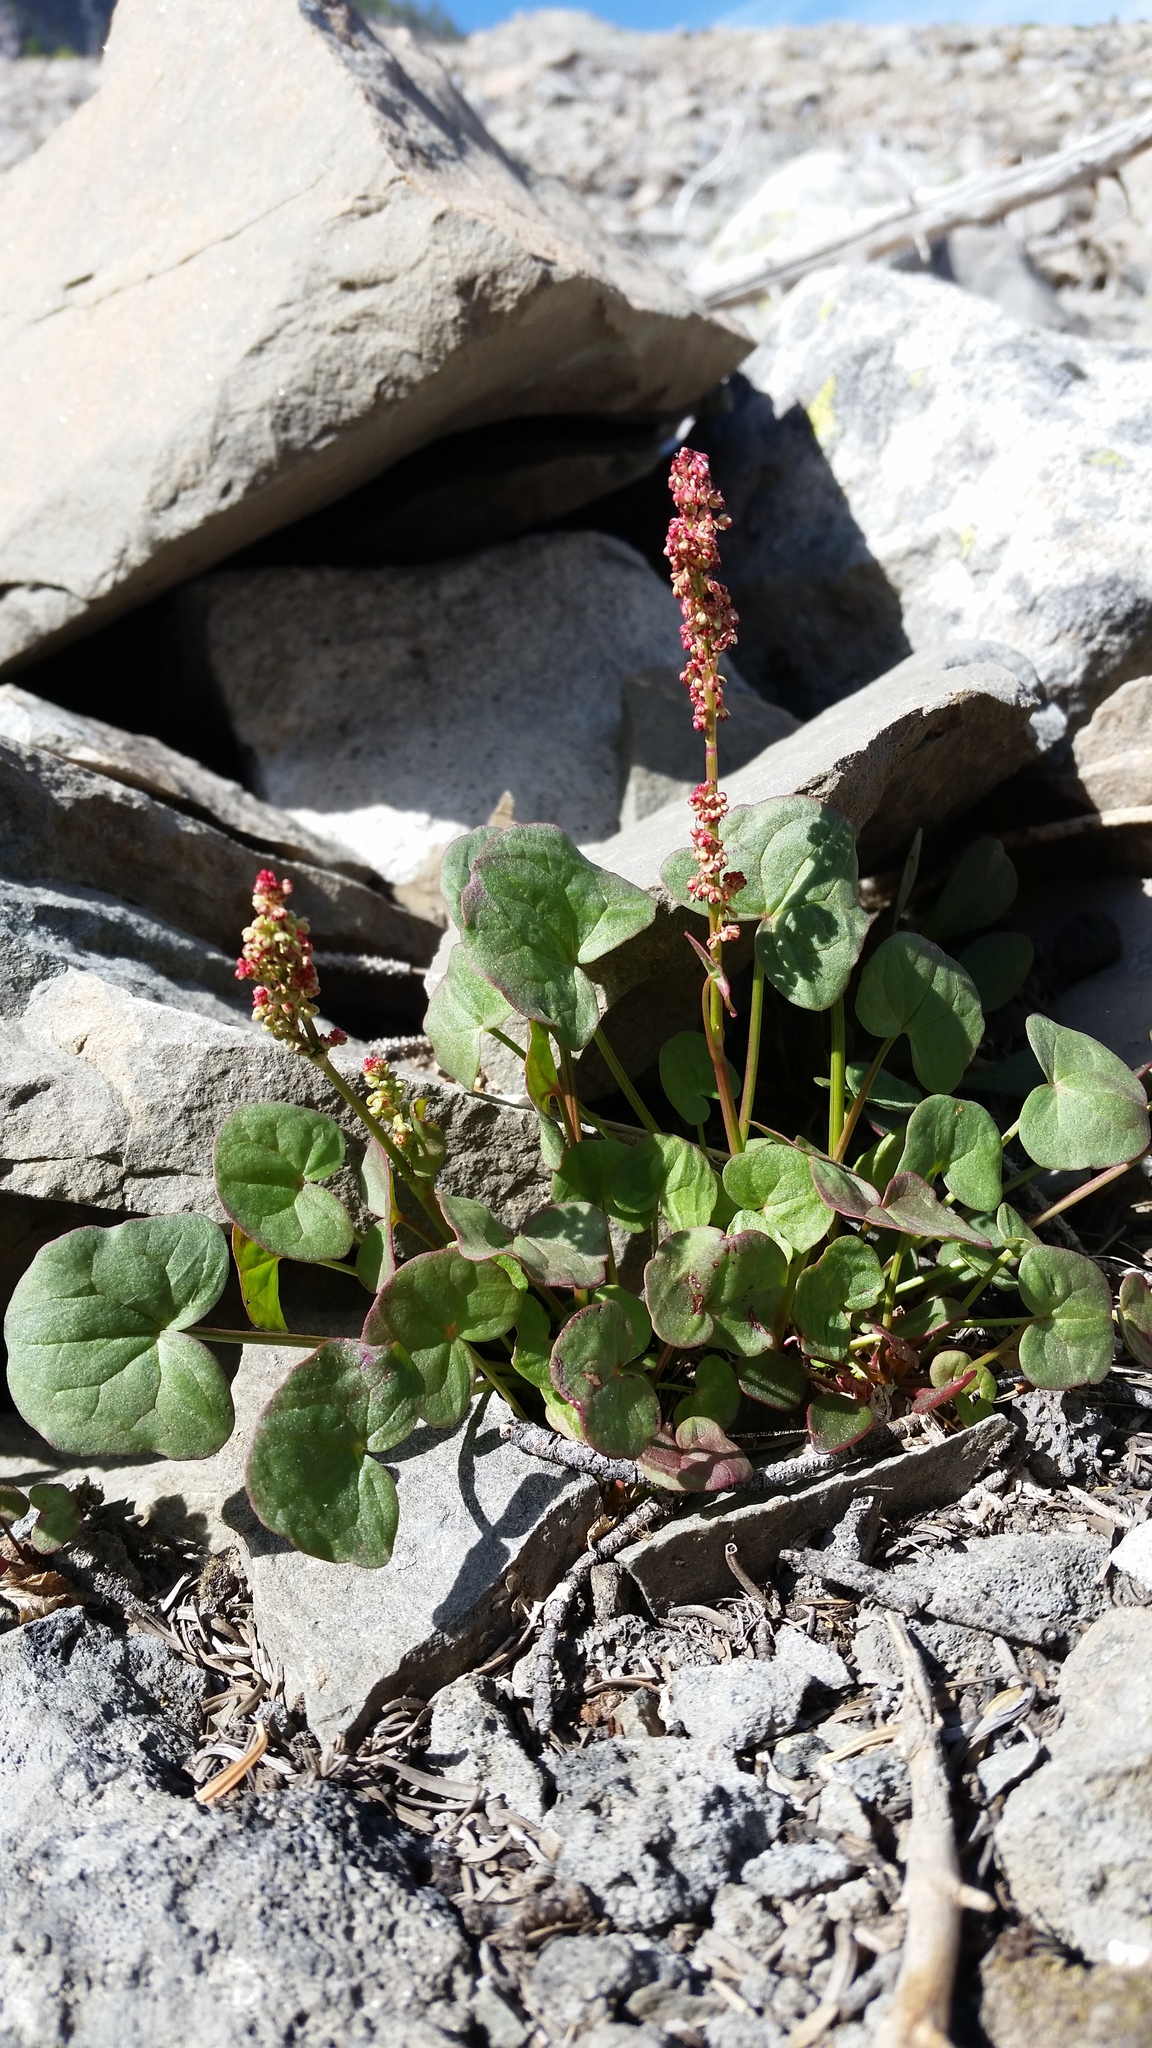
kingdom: Plantae
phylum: Tracheophyta
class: Magnoliopsida
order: Caryophyllales
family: Polygonaceae
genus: Oxyria
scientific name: Oxyria digyna
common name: Alpine mountain-sorrel
